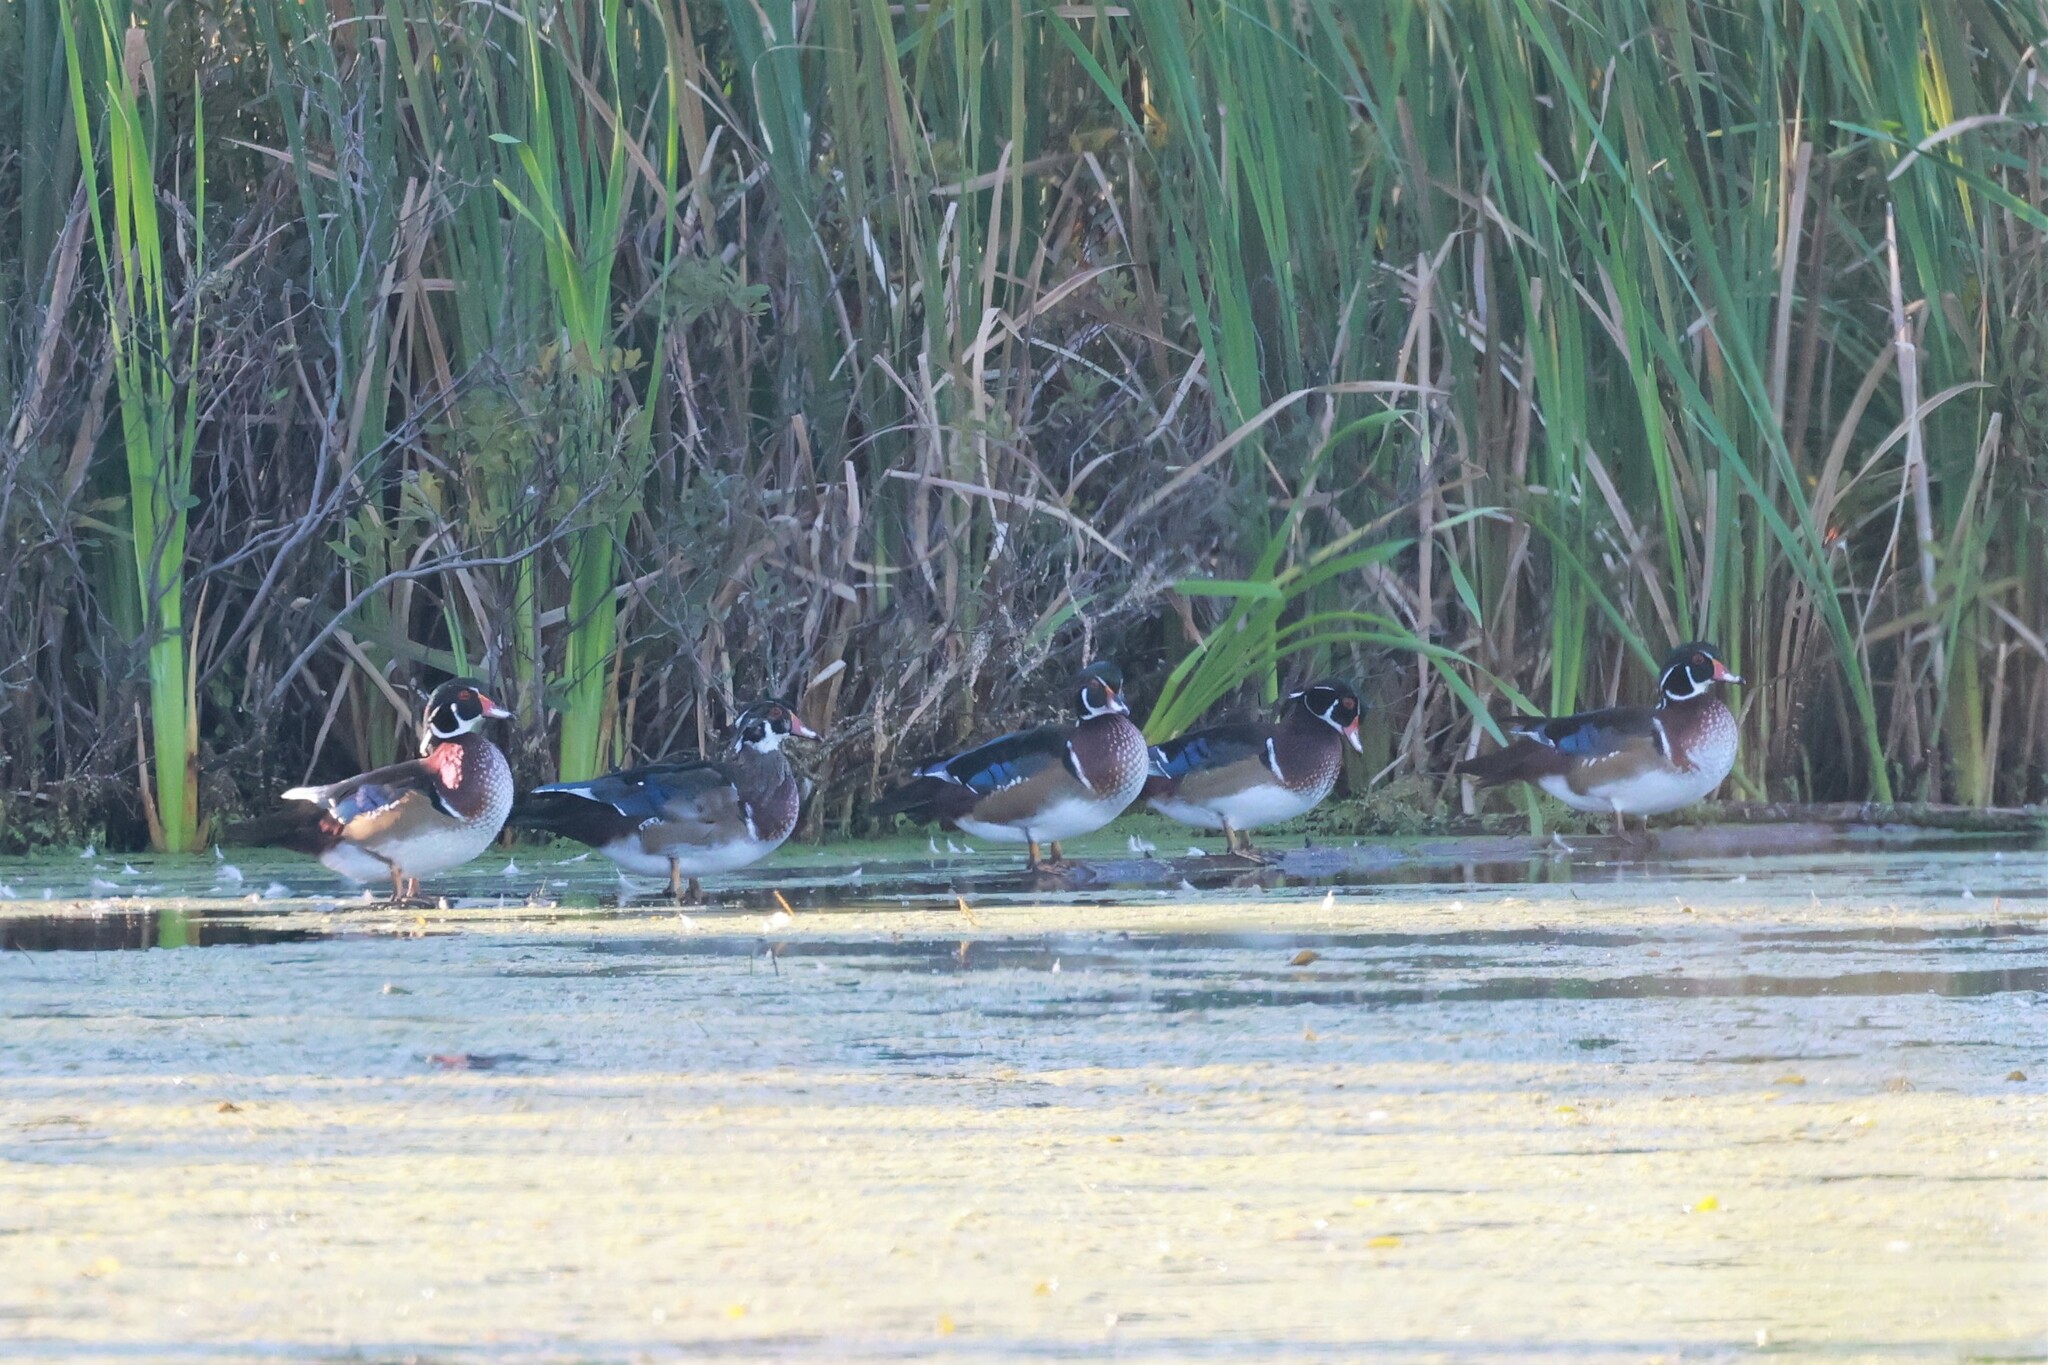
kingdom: Animalia
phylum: Chordata
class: Aves
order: Anseriformes
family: Anatidae
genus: Aix
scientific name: Aix sponsa
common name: Wood duck
